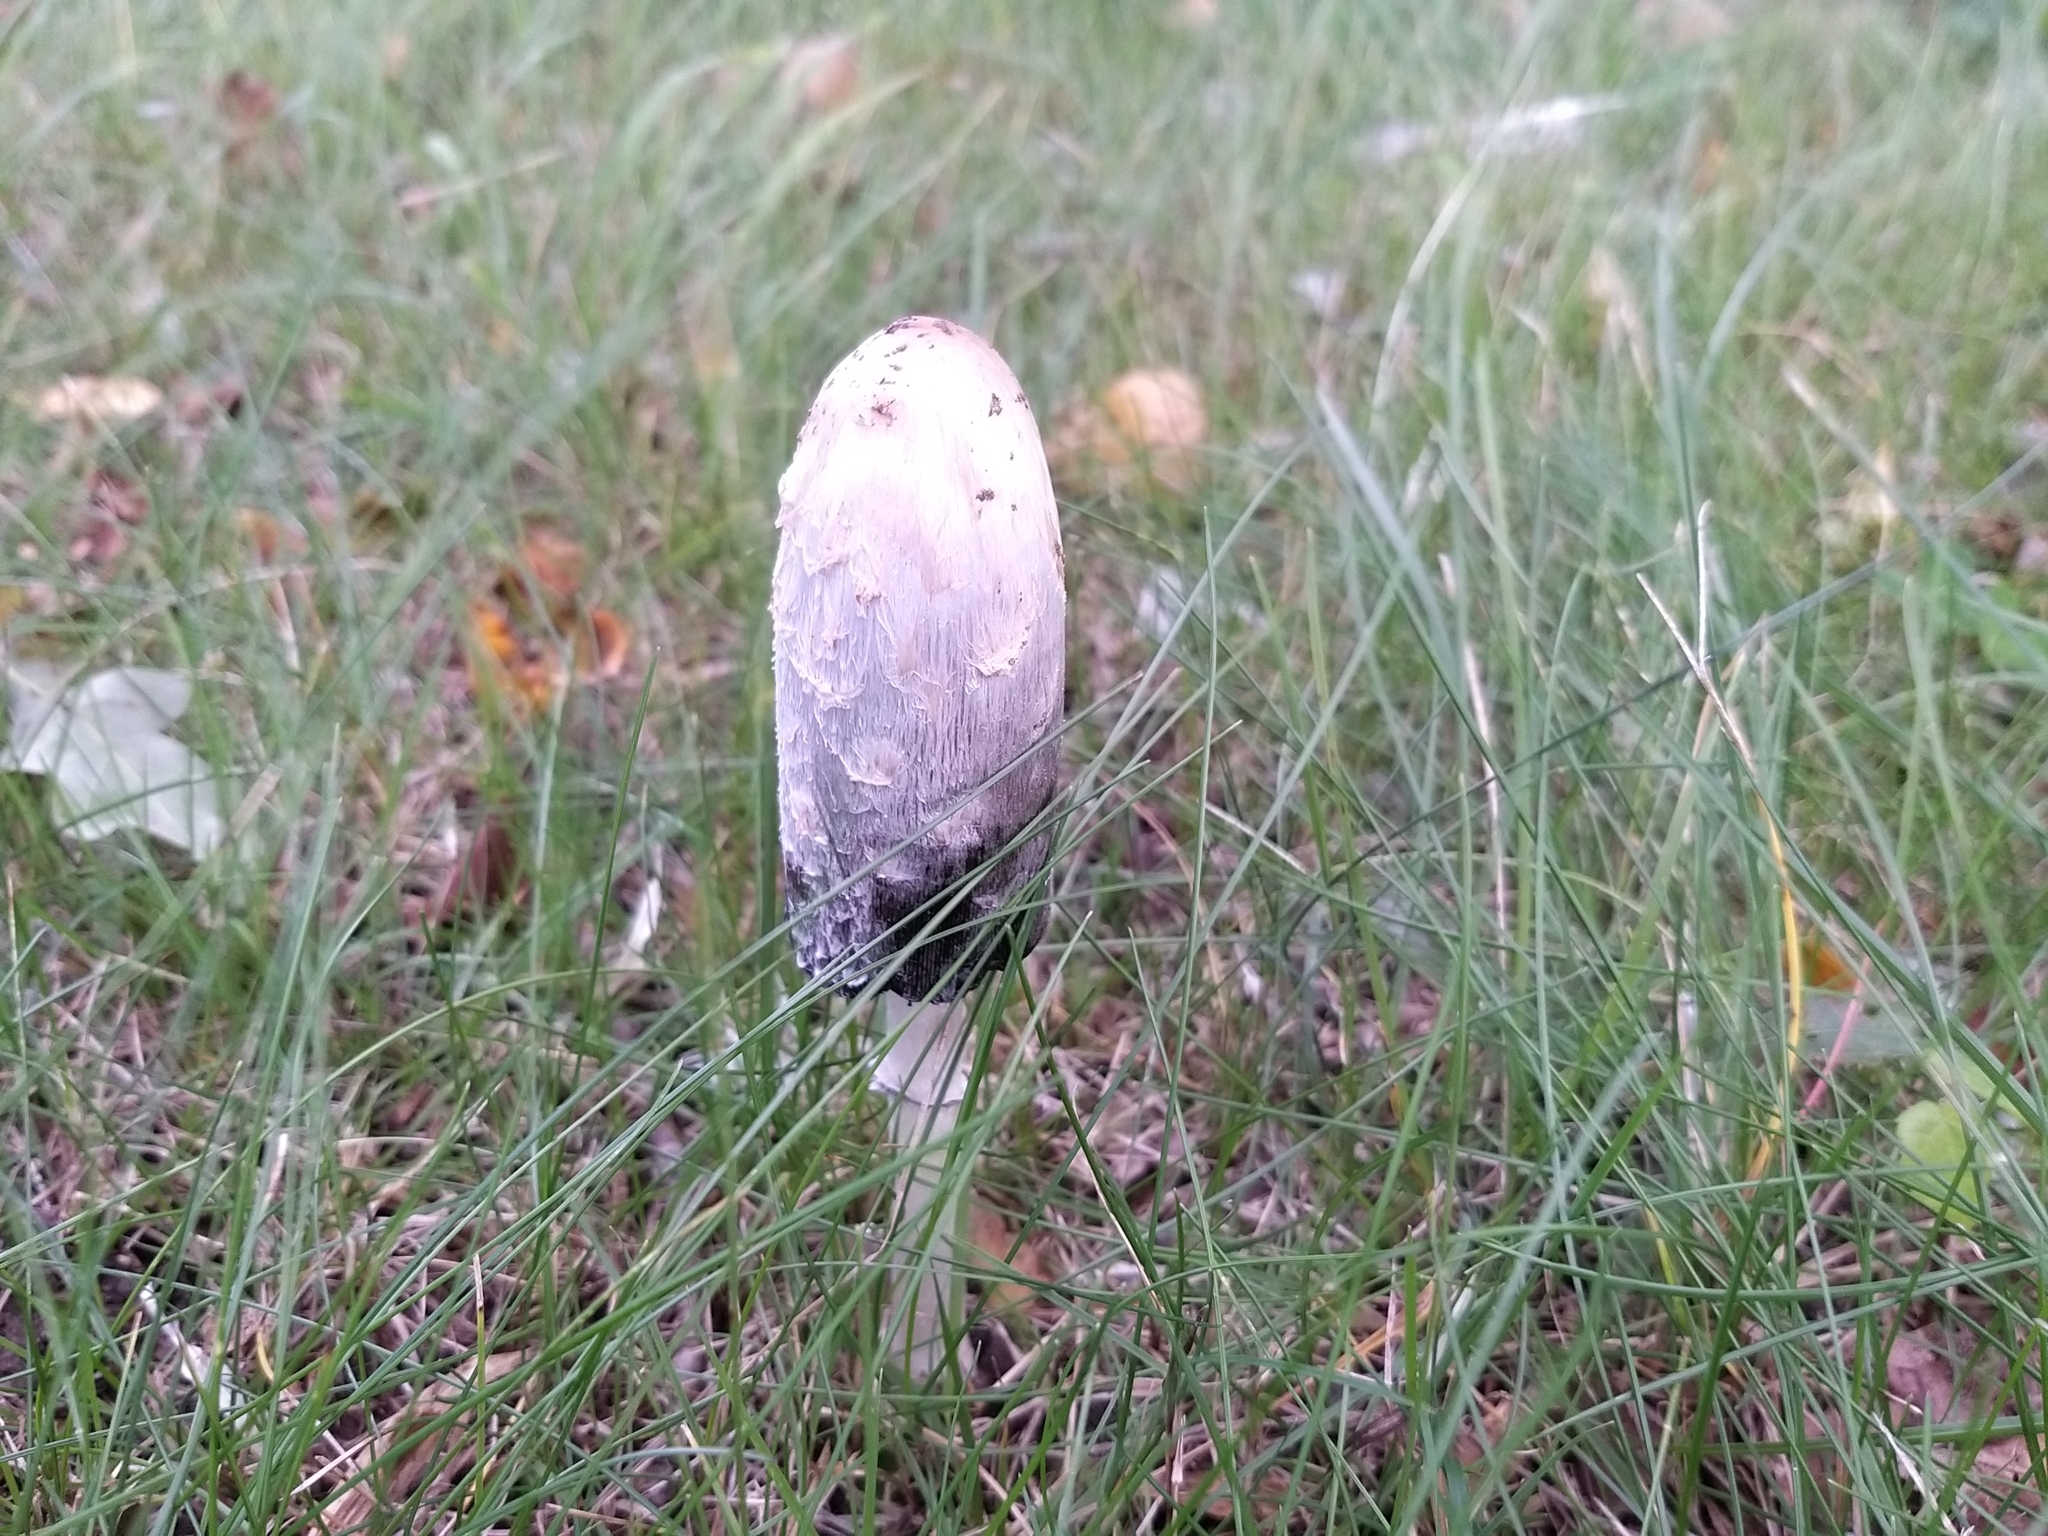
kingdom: Fungi
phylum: Basidiomycota
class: Agaricomycetes
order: Agaricales
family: Agaricaceae
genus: Coprinus
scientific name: Coprinus comatus
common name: Lawyer's wig
